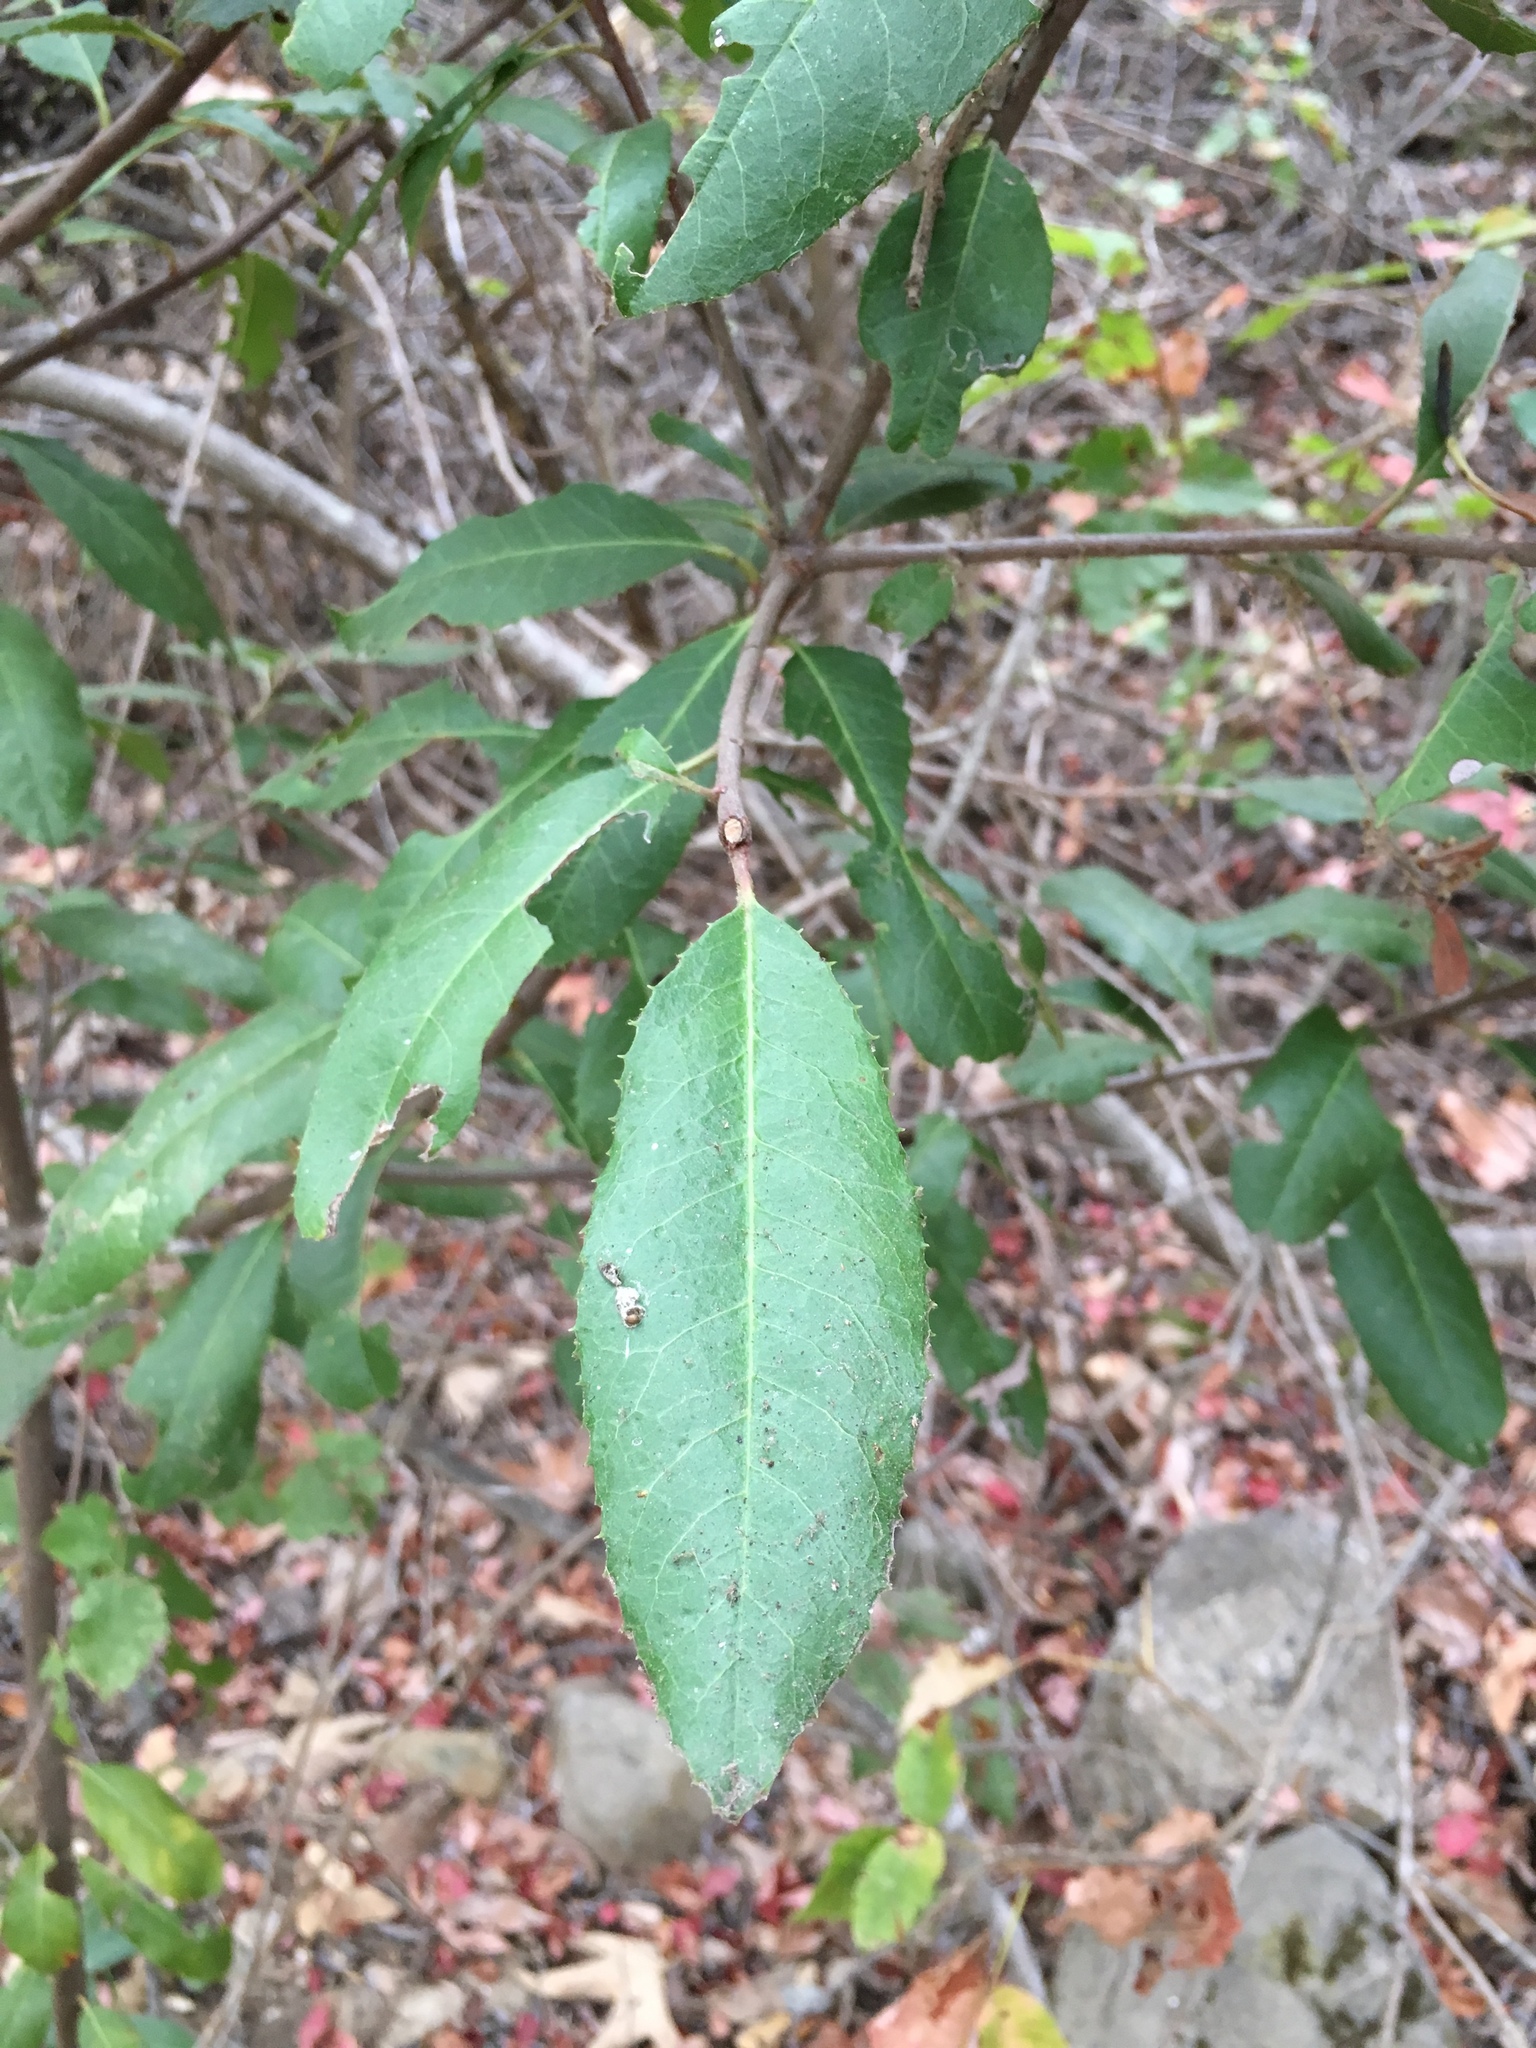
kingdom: Plantae
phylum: Tracheophyta
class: Magnoliopsida
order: Rosales
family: Rosaceae
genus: Heteromeles
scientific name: Heteromeles arbutifolia
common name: California-holly
